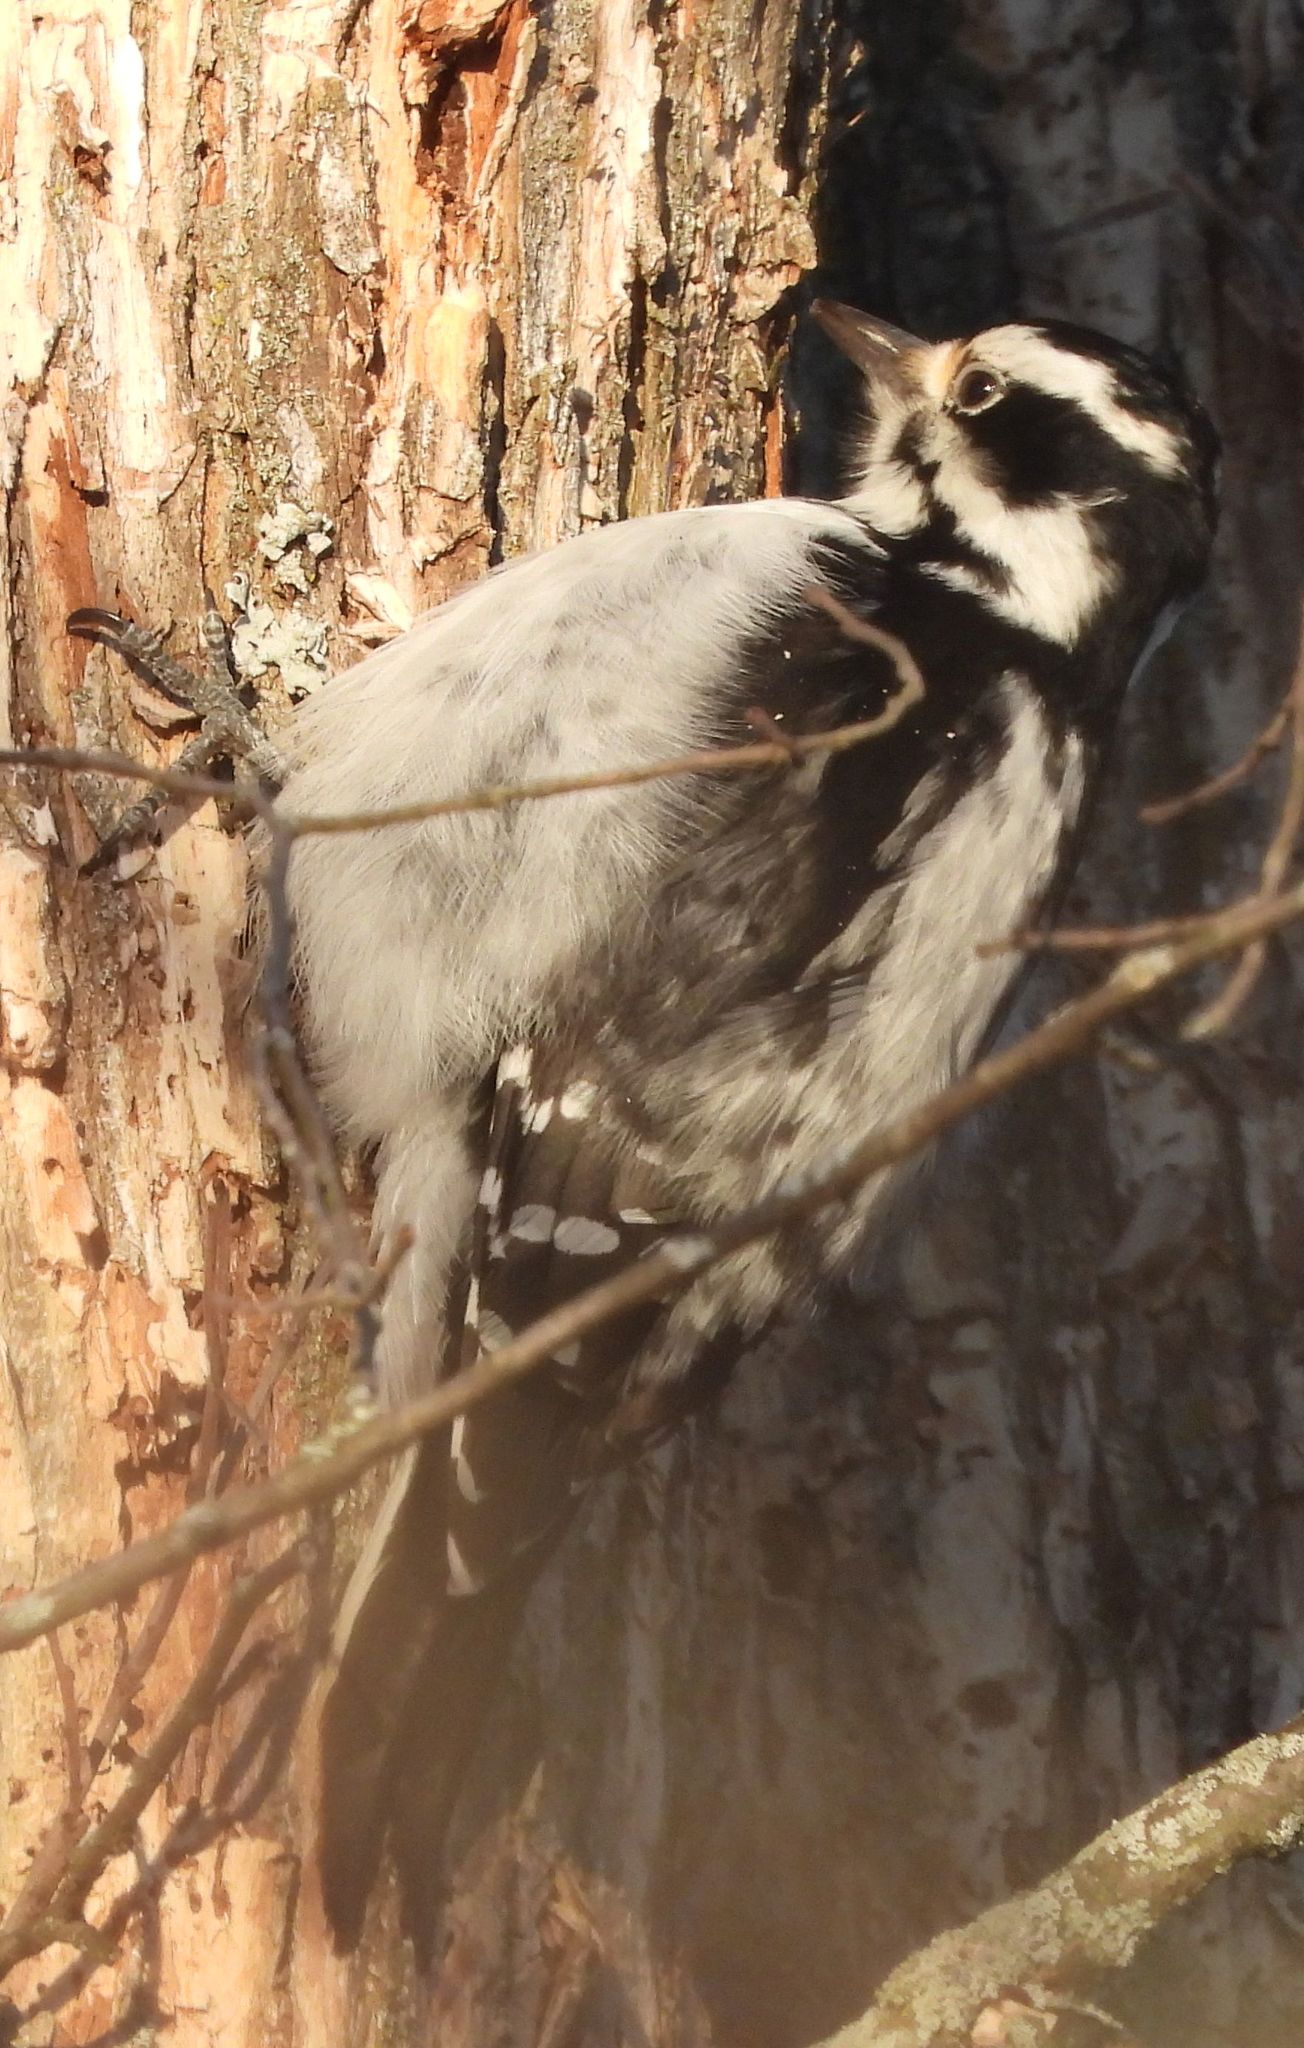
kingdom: Animalia
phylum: Chordata
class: Aves
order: Piciformes
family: Picidae
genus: Leuconotopicus
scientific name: Leuconotopicus villosus
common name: Hairy woodpecker
